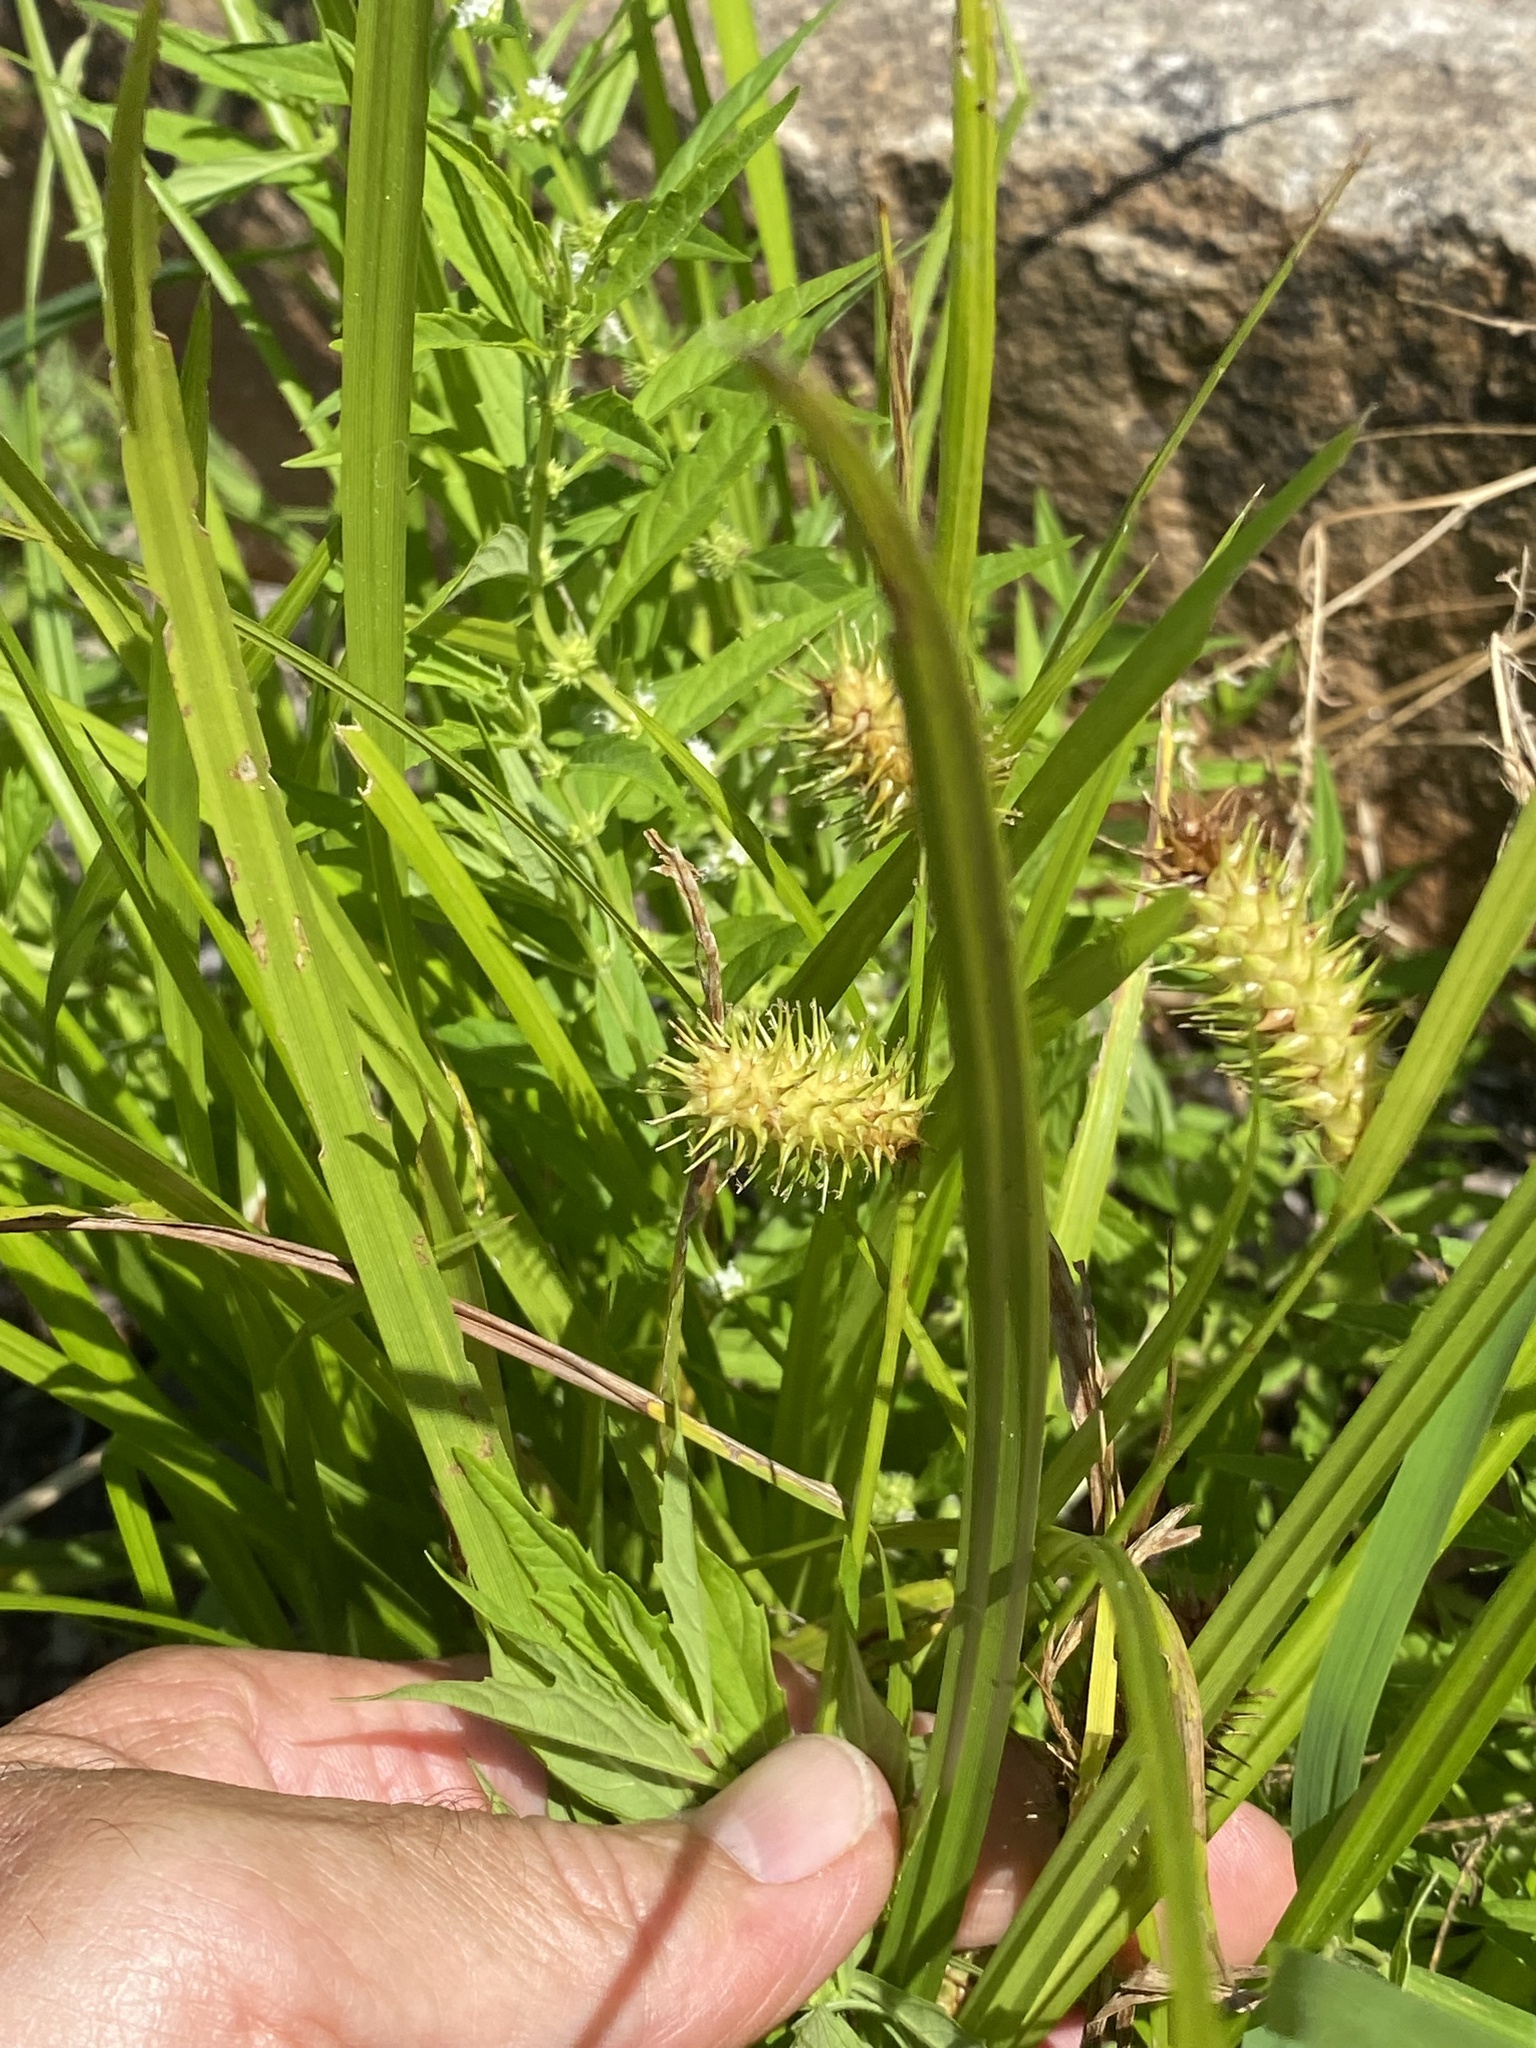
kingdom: Plantae
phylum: Tracheophyta
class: Liliopsida
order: Poales
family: Cyperaceae
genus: Carex
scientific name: Carex lurida
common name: Sallow sedge
